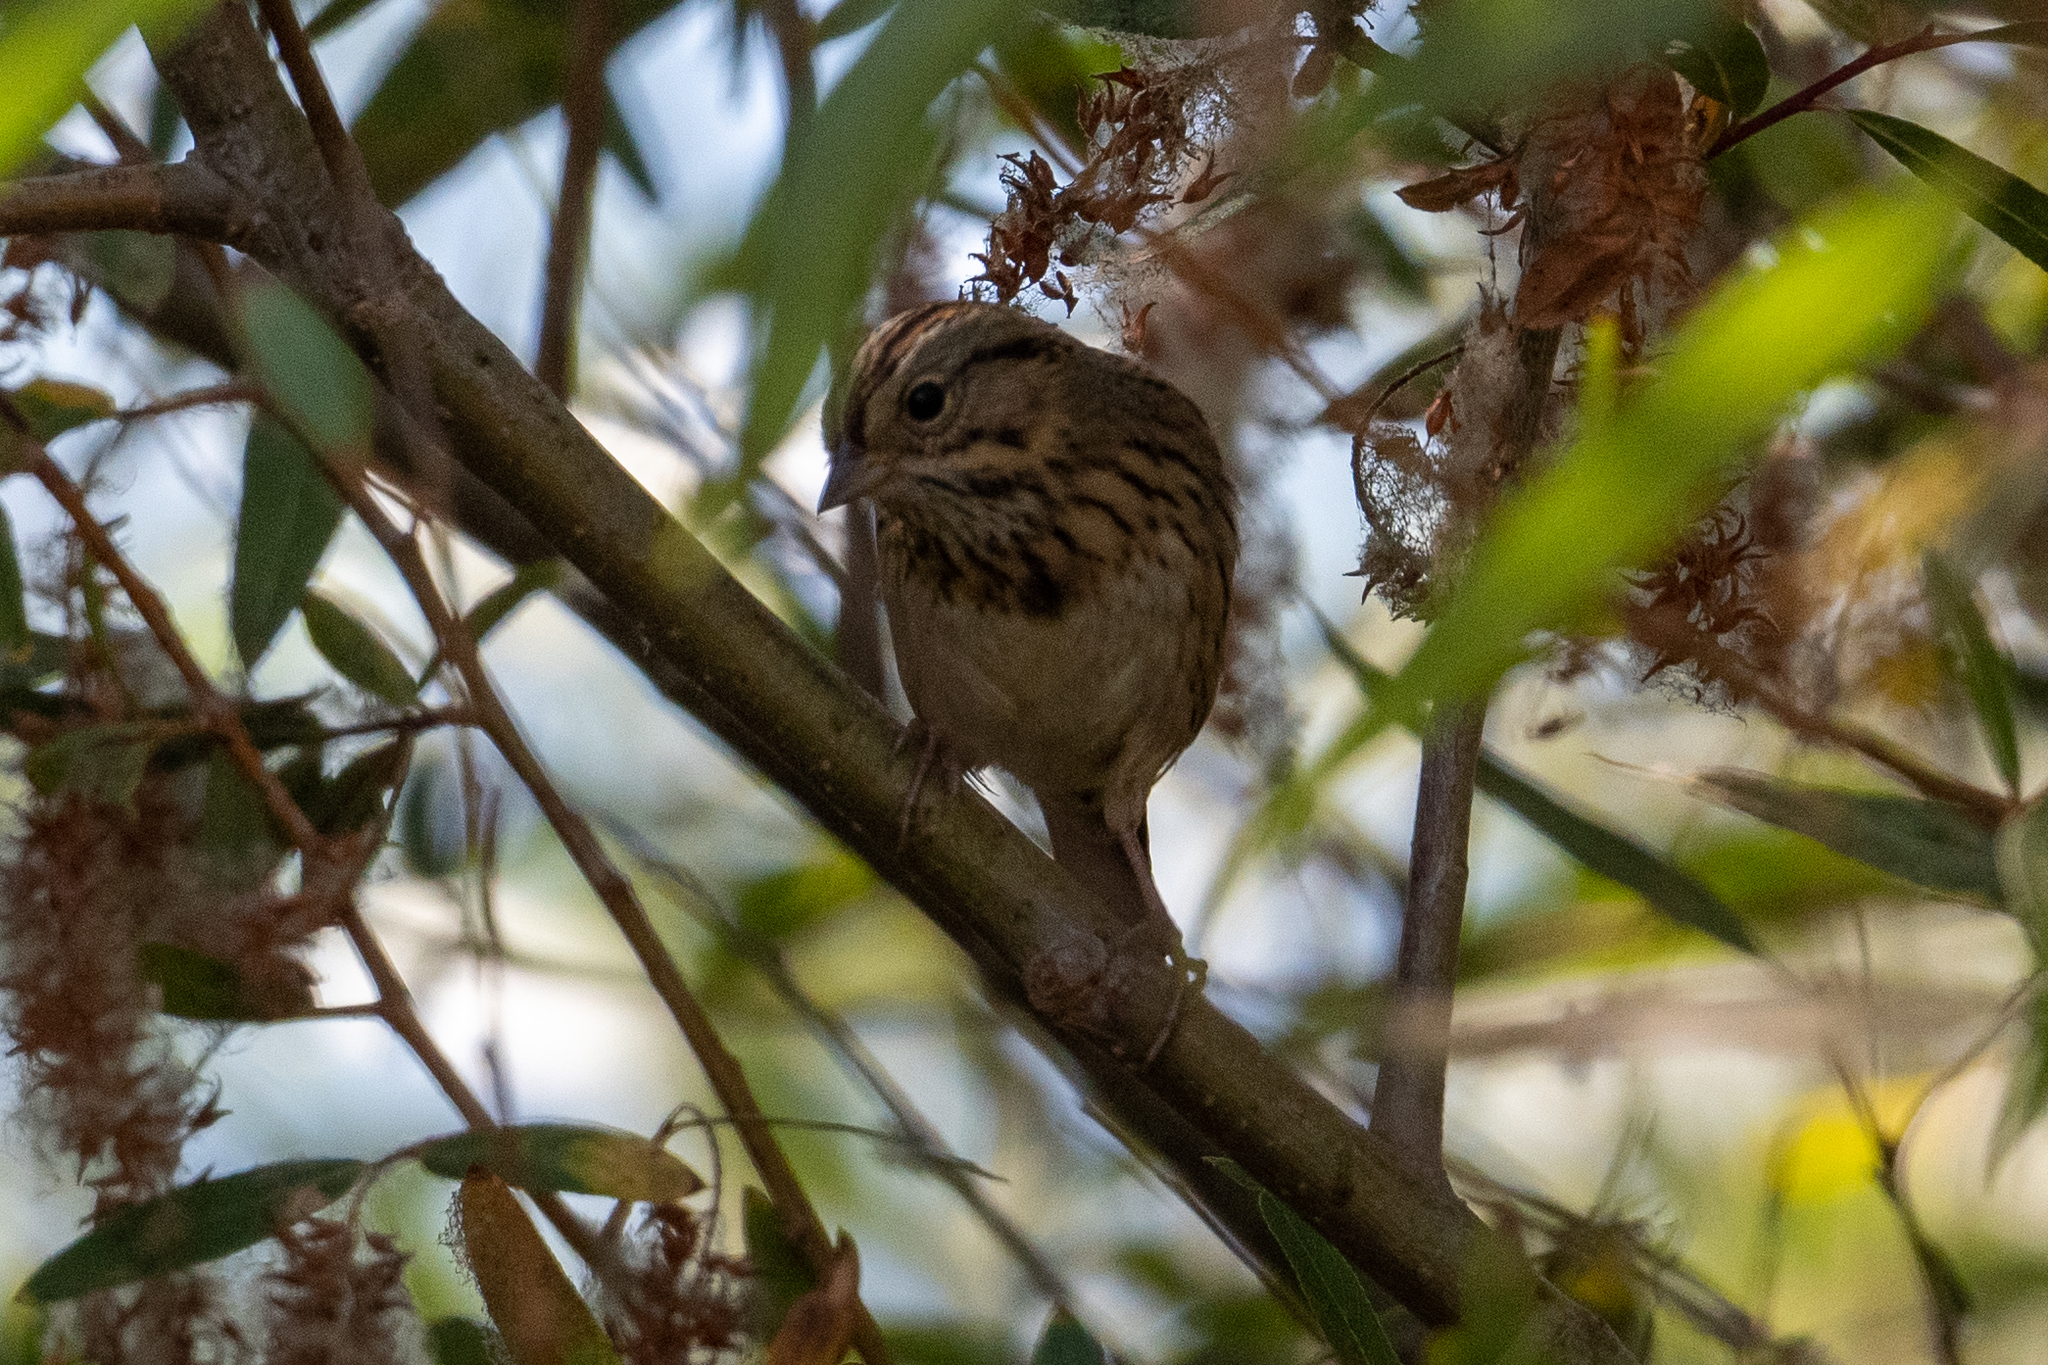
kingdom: Animalia
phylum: Chordata
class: Aves
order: Passeriformes
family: Passerellidae
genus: Melospiza
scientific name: Melospiza lincolnii
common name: Lincoln's sparrow
